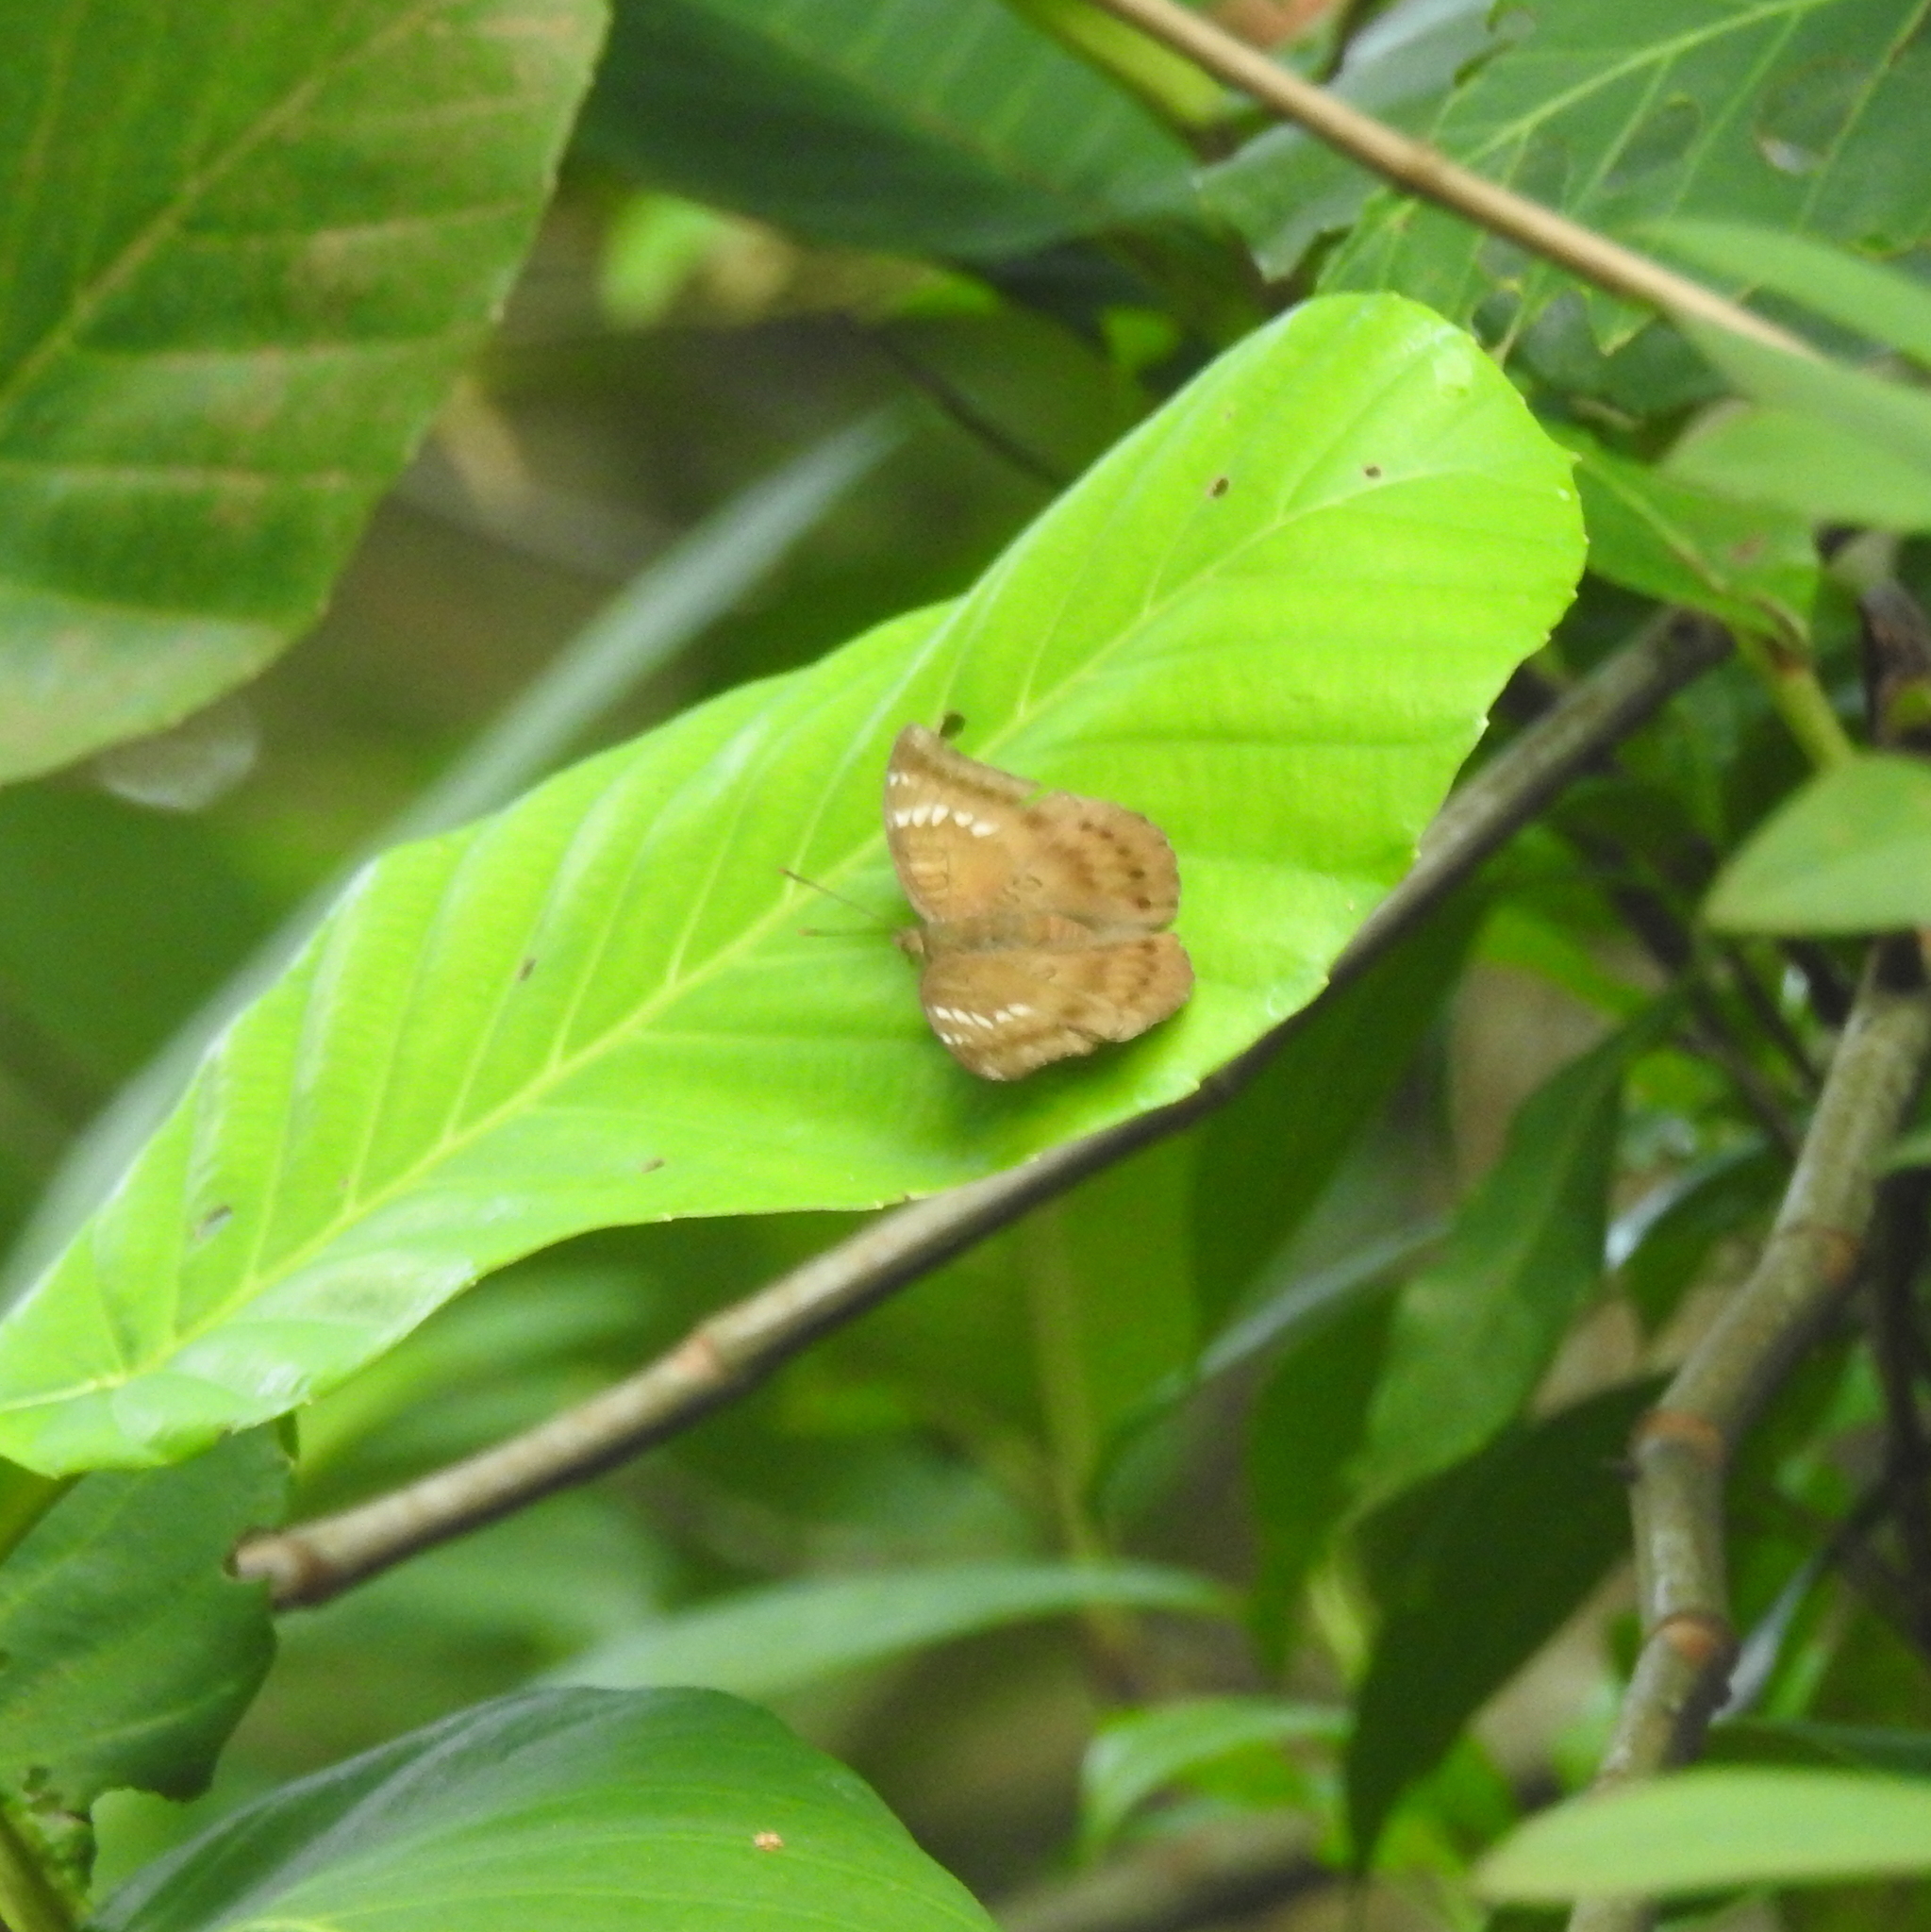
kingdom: Animalia
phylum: Arthropoda
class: Insecta
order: Lepidoptera
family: Nymphalidae
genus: Euthalia
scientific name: Euthalia aconthea
